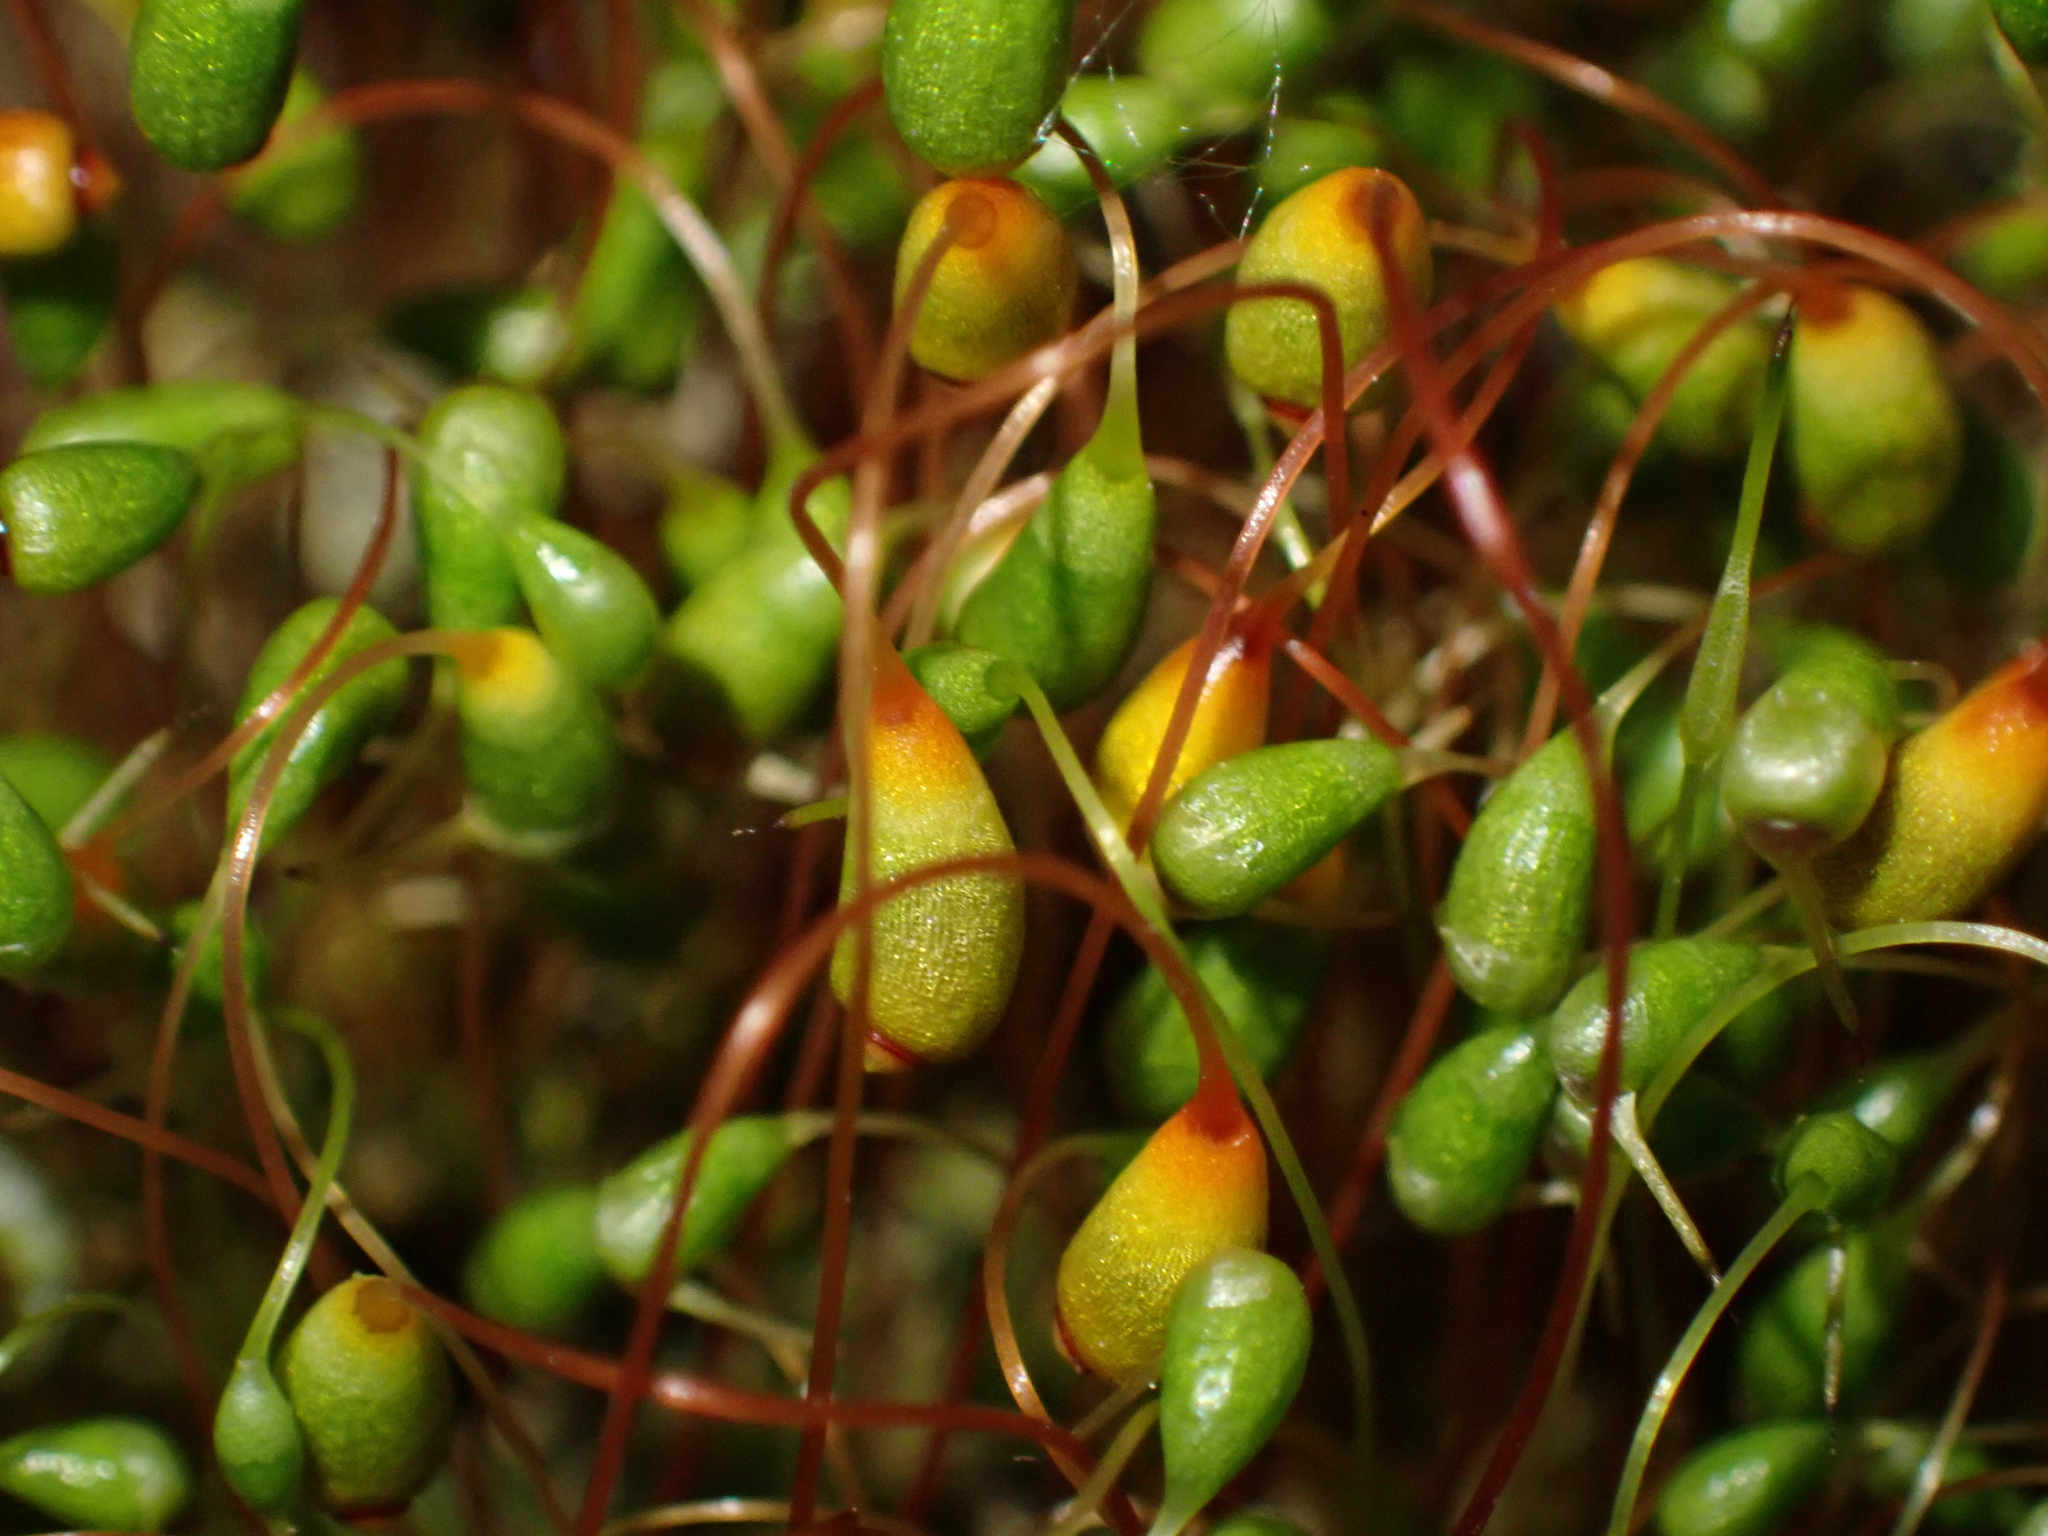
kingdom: Plantae
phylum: Bryophyta
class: Bryopsida
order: Funariales
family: Funariaceae
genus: Funaria
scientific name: Funaria hygrometrica
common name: Common cord moss
